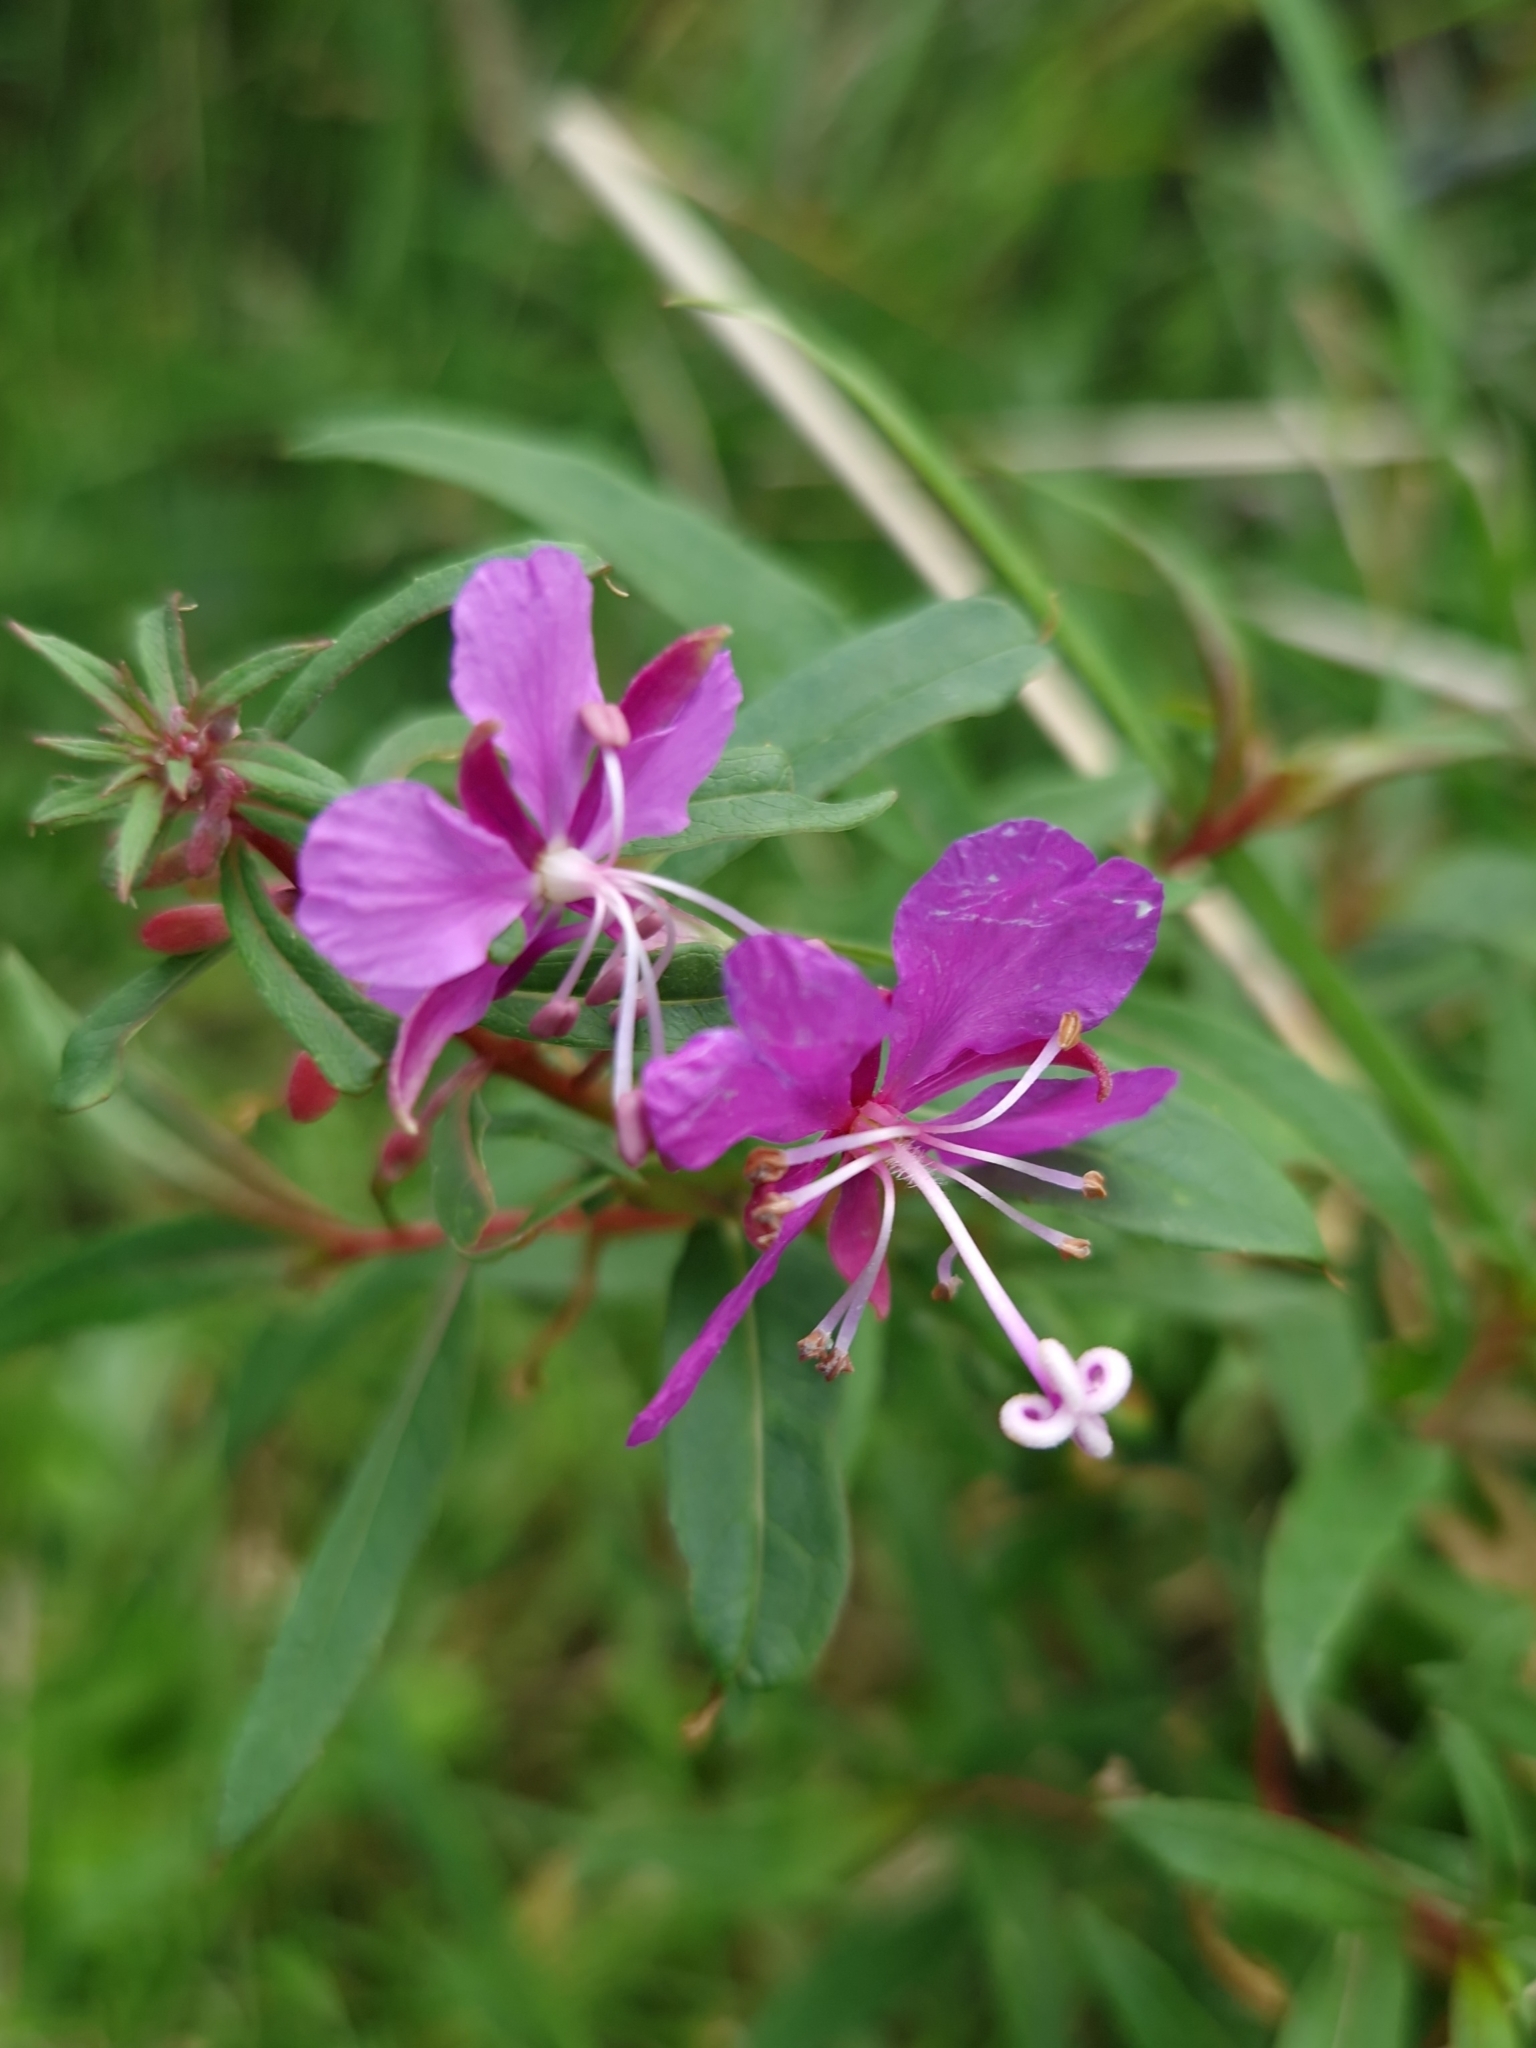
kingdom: Plantae
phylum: Tracheophyta
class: Magnoliopsida
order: Myrtales
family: Onagraceae
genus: Chamaenerion
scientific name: Chamaenerion angustifolium
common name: Fireweed
